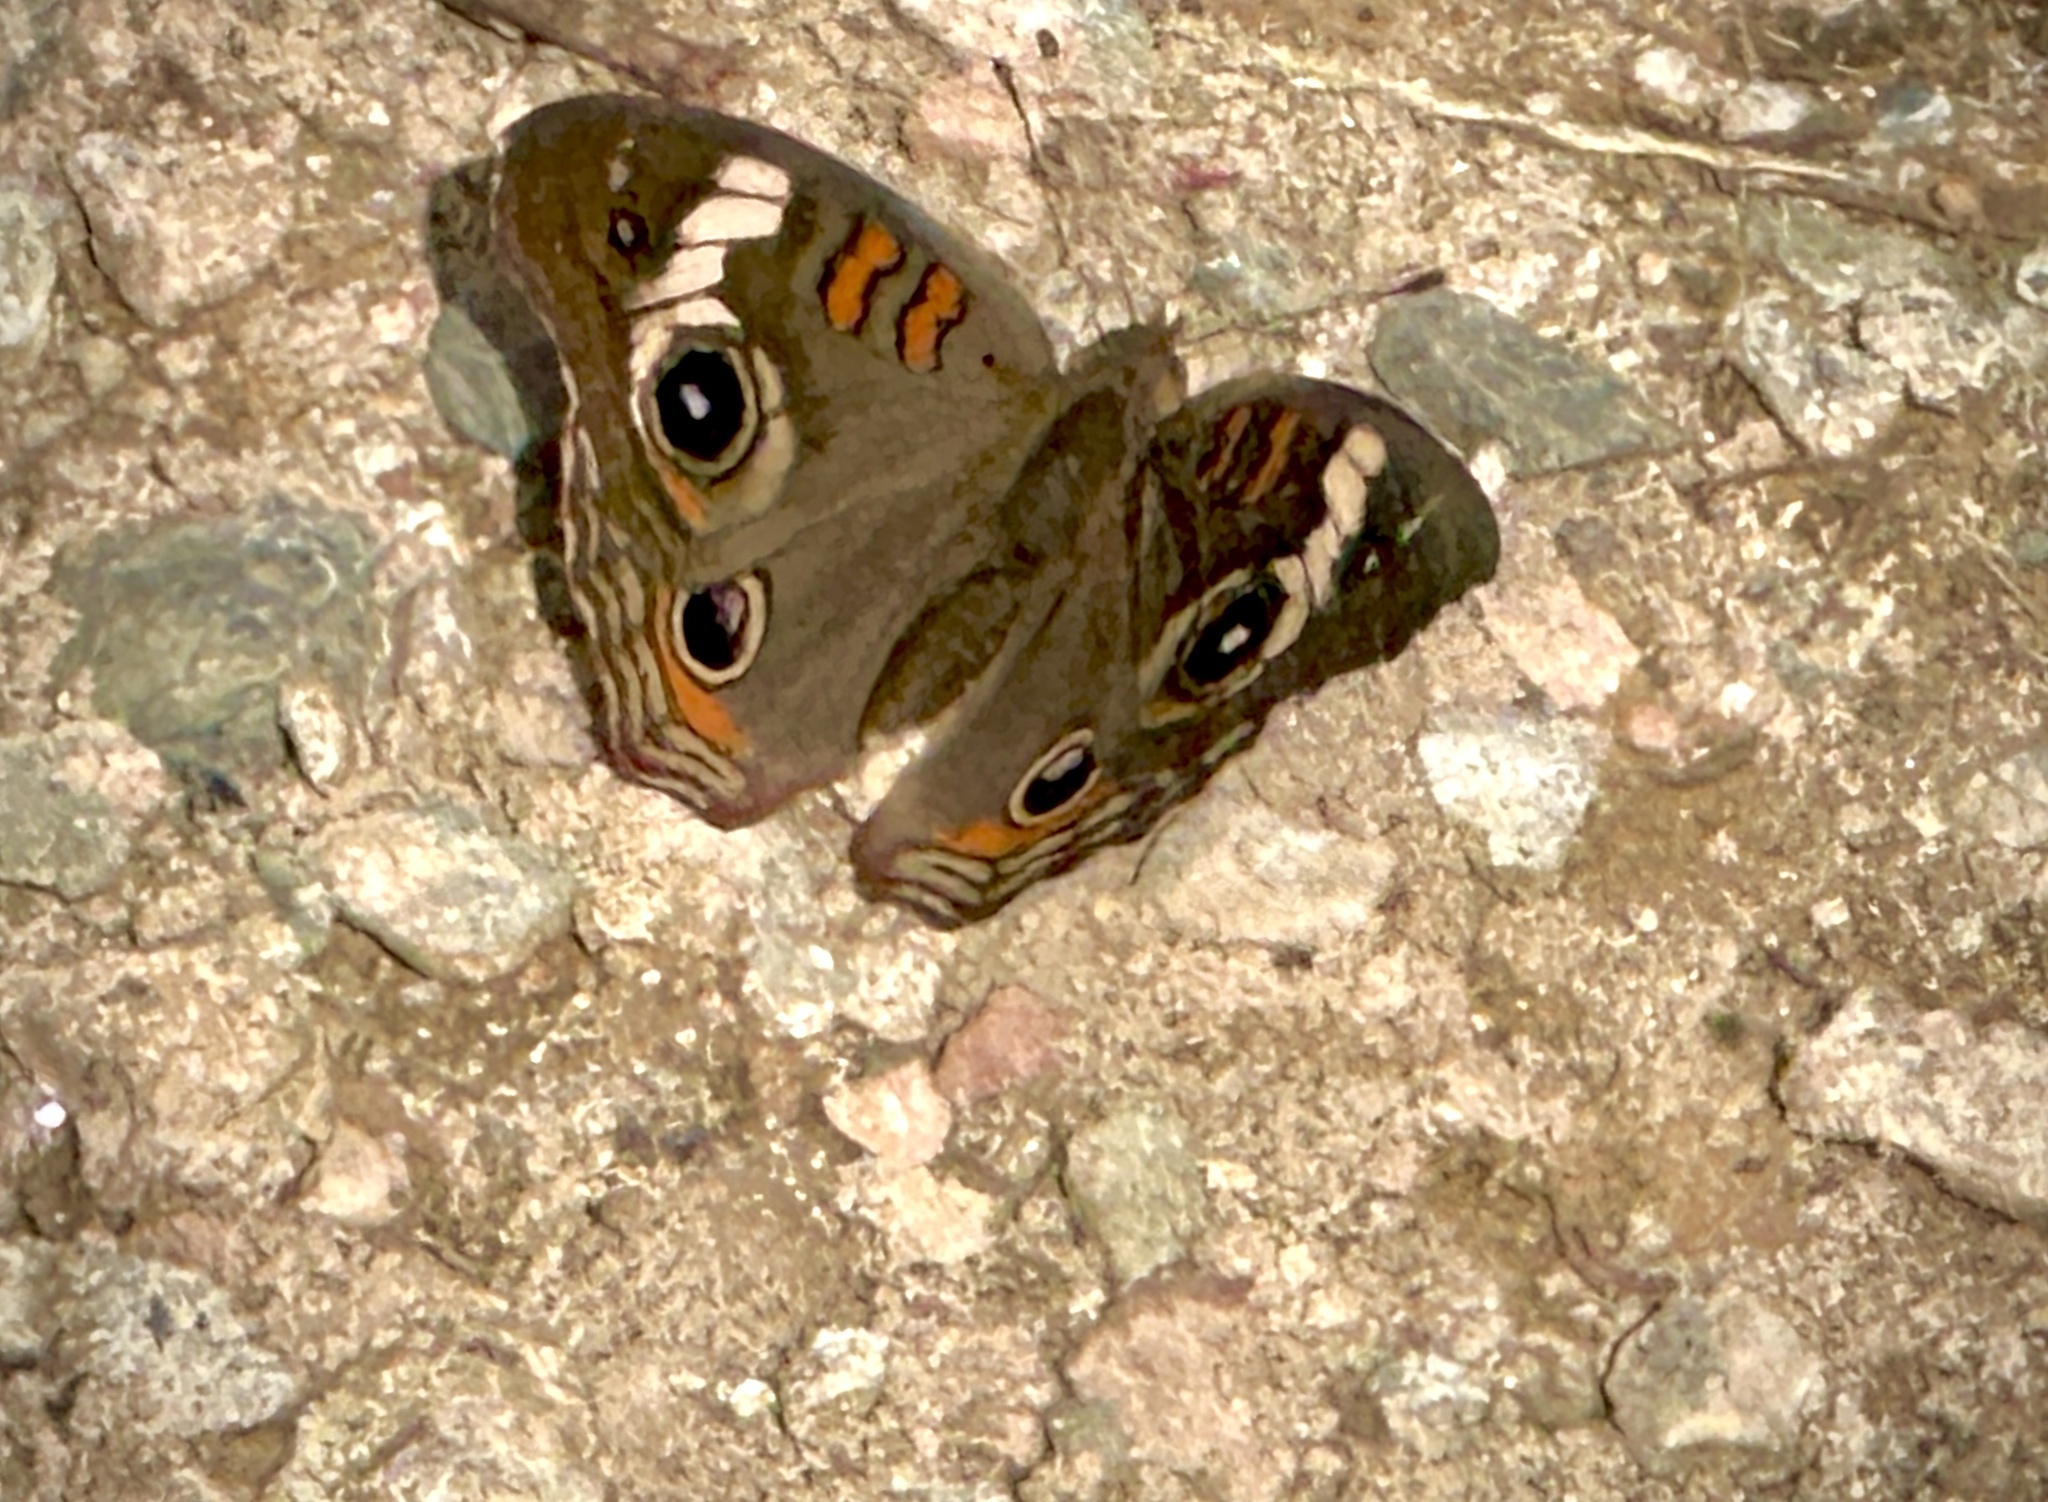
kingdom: Animalia
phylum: Arthropoda
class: Insecta
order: Lepidoptera
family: Nymphalidae
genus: Junonia
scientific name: Junonia coenia
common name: Common buckeye
